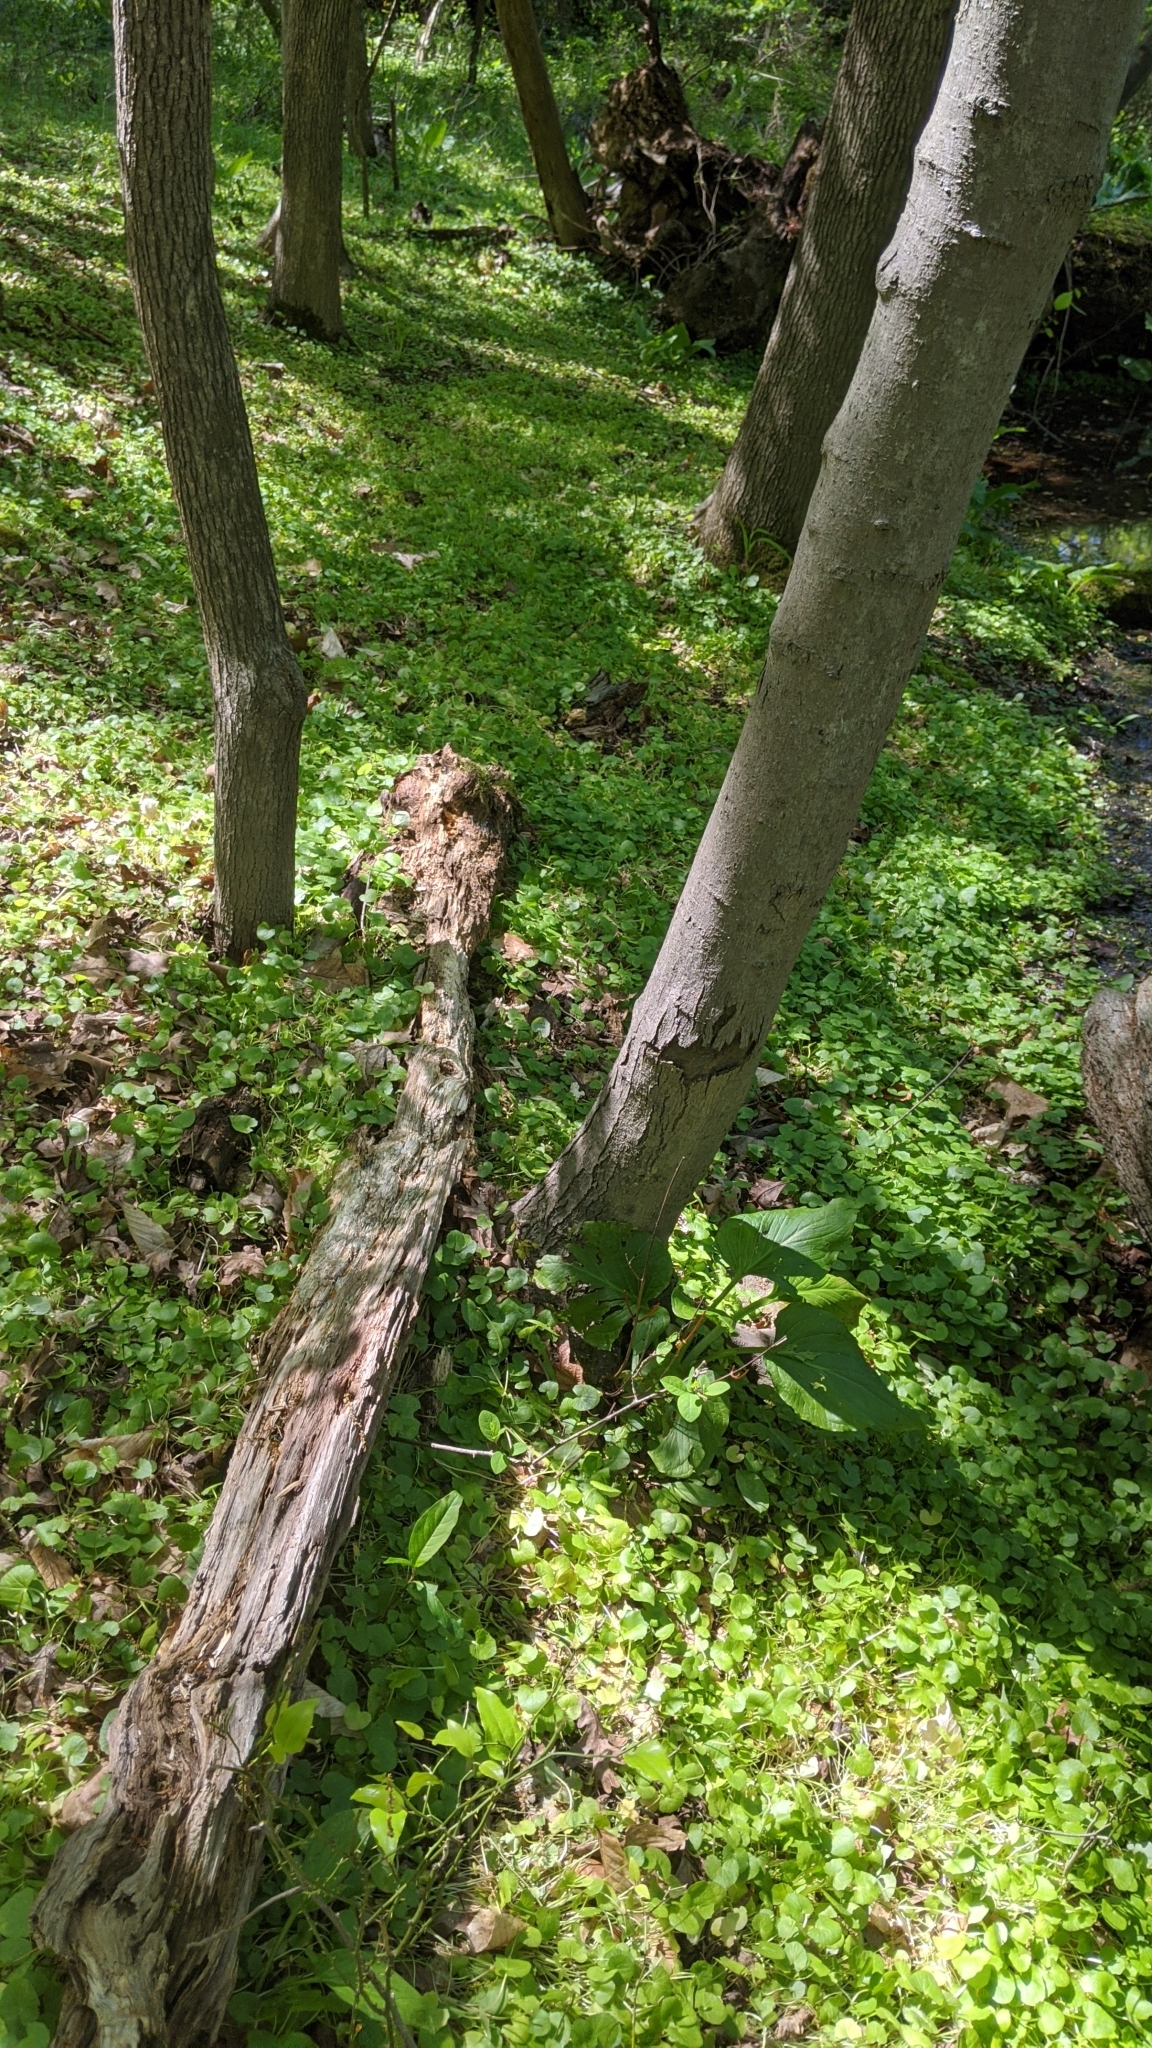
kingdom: Plantae
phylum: Tracheophyta
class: Magnoliopsida
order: Ranunculales
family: Ranunculaceae
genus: Ficaria
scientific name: Ficaria verna
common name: Lesser celandine
